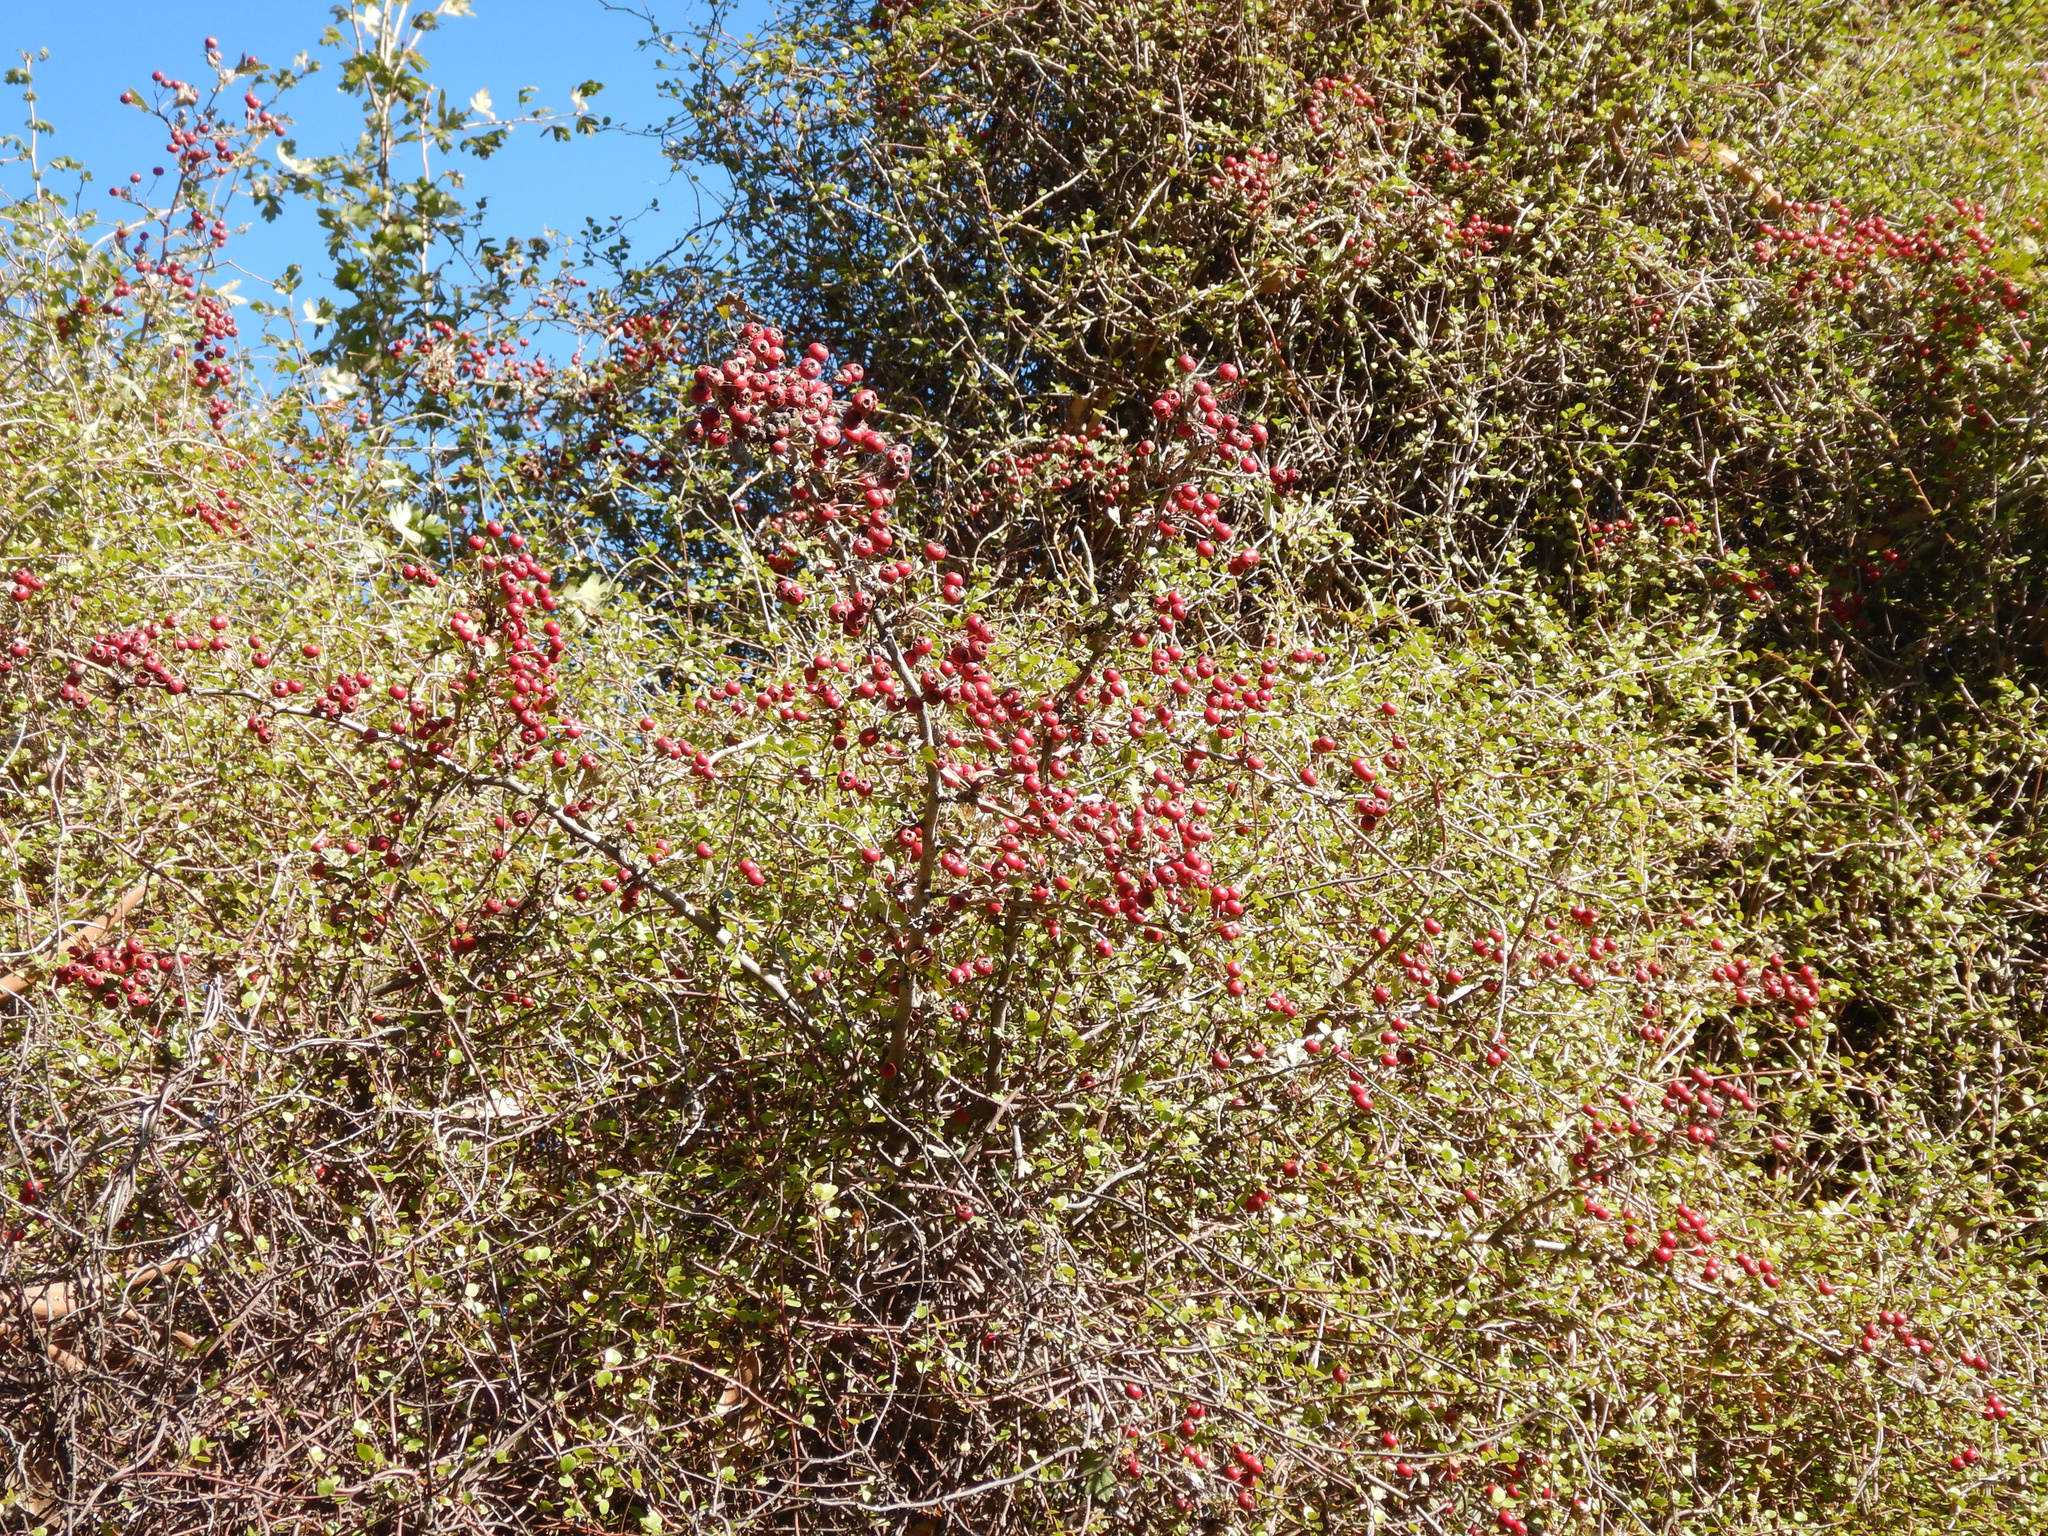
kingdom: Plantae
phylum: Tracheophyta
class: Magnoliopsida
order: Rosales
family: Rosaceae
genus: Crataegus
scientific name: Crataegus monogyna
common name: Hawthorn
